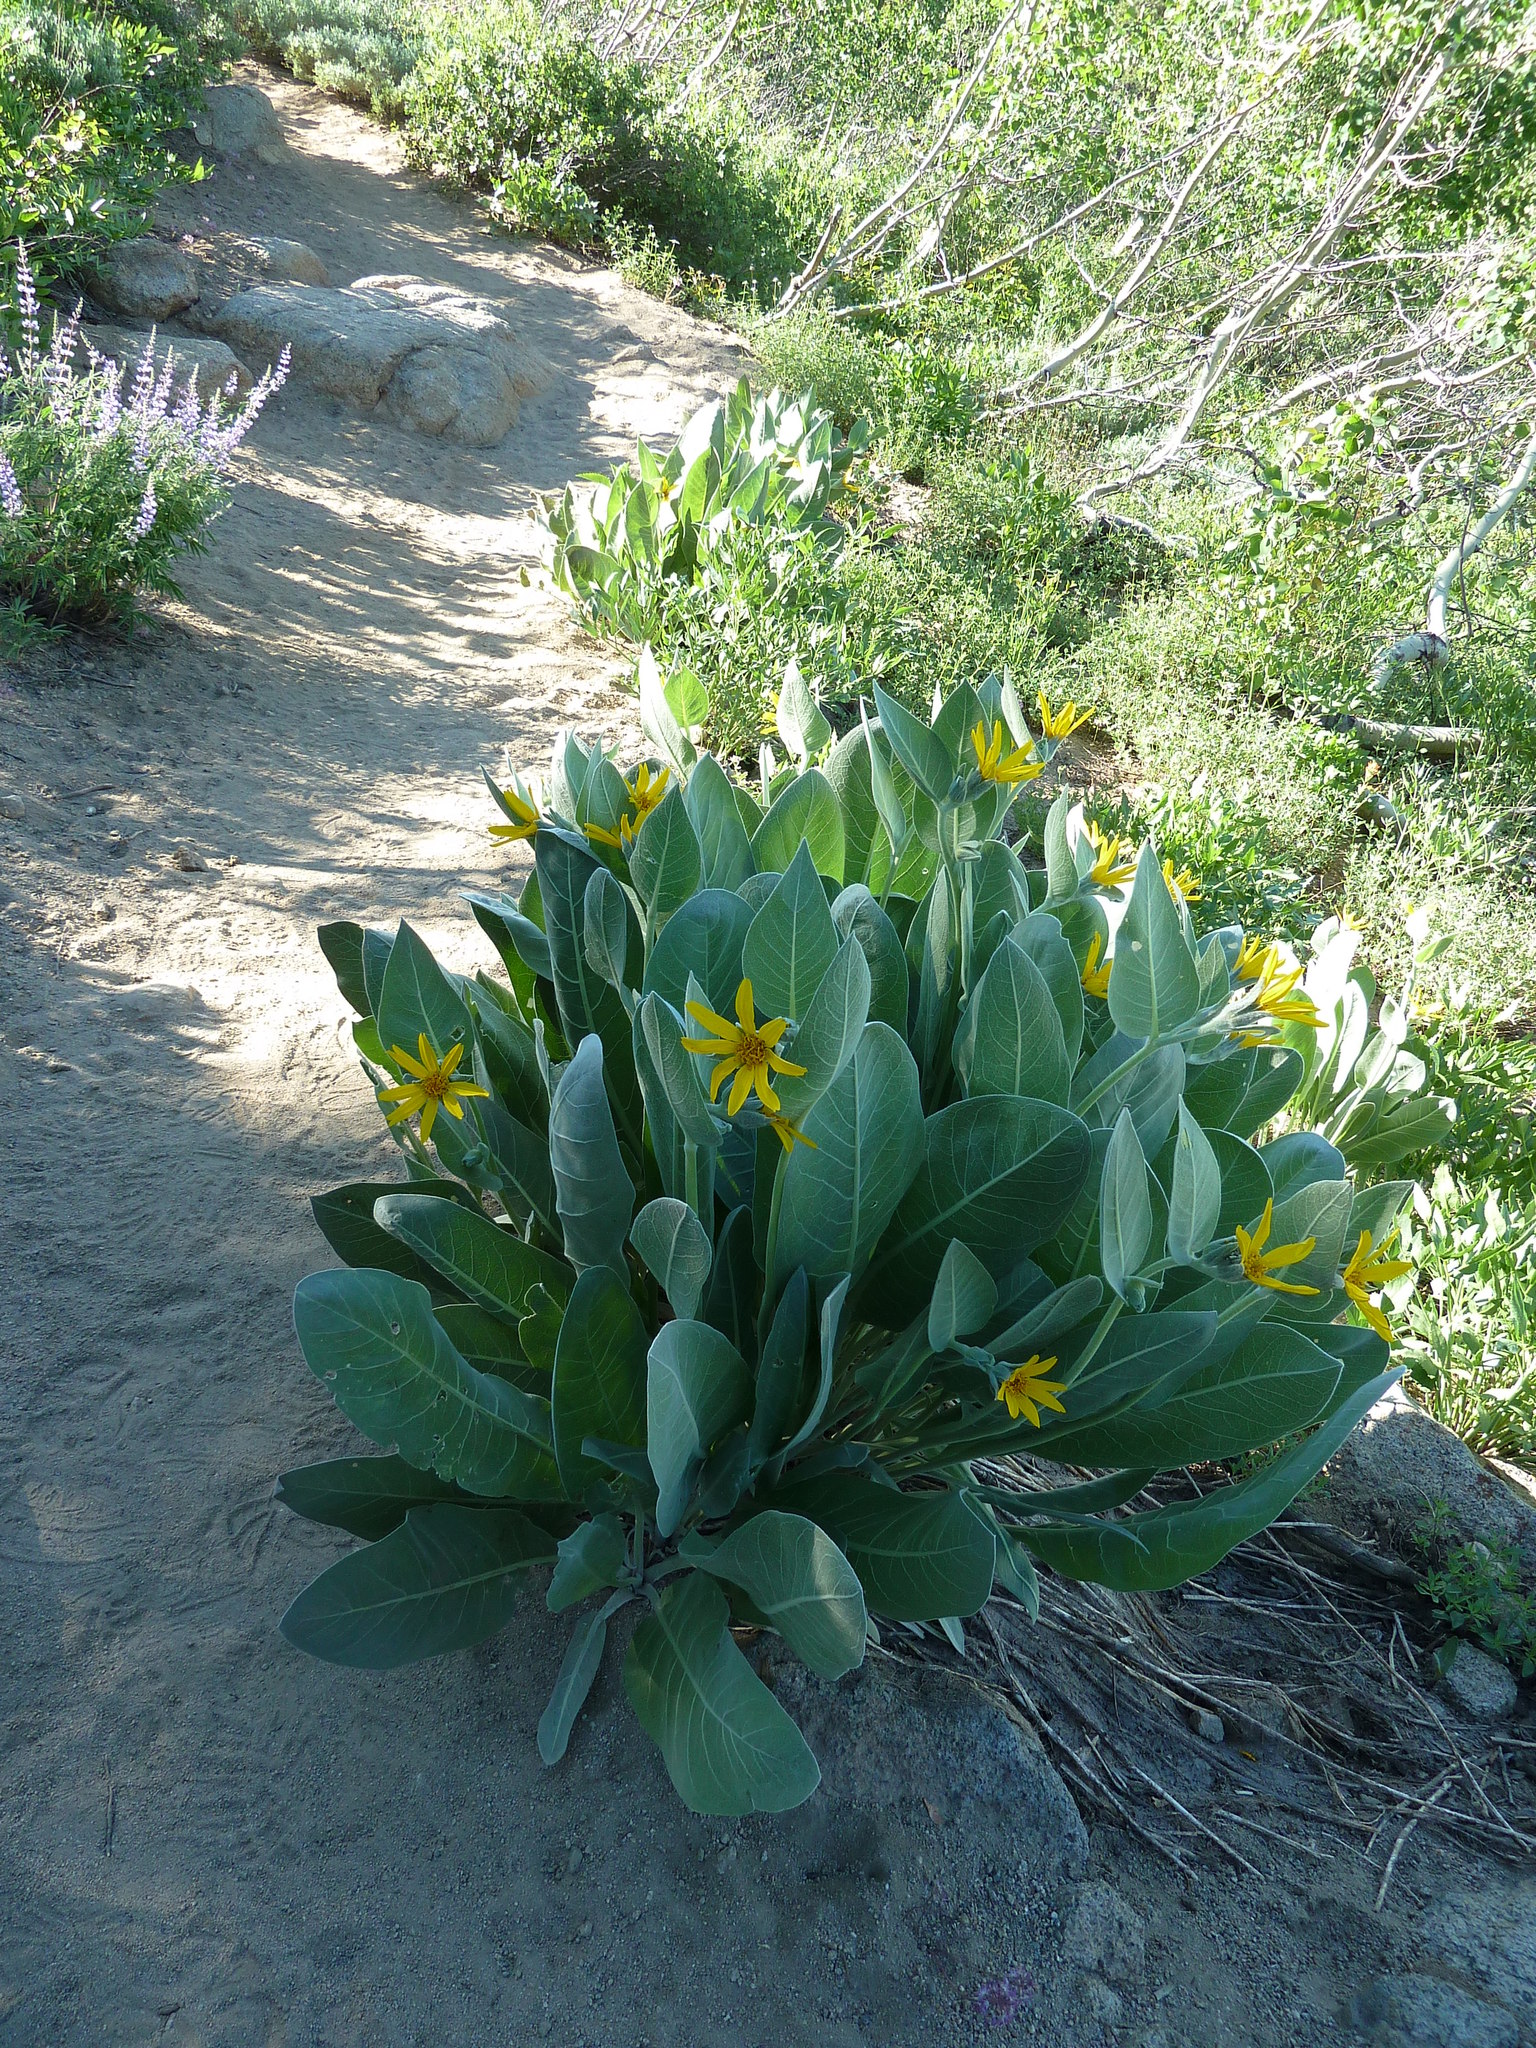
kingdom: Plantae
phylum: Tracheophyta
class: Magnoliopsida
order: Asterales
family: Asteraceae
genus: Wyethia
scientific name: Wyethia mollis
